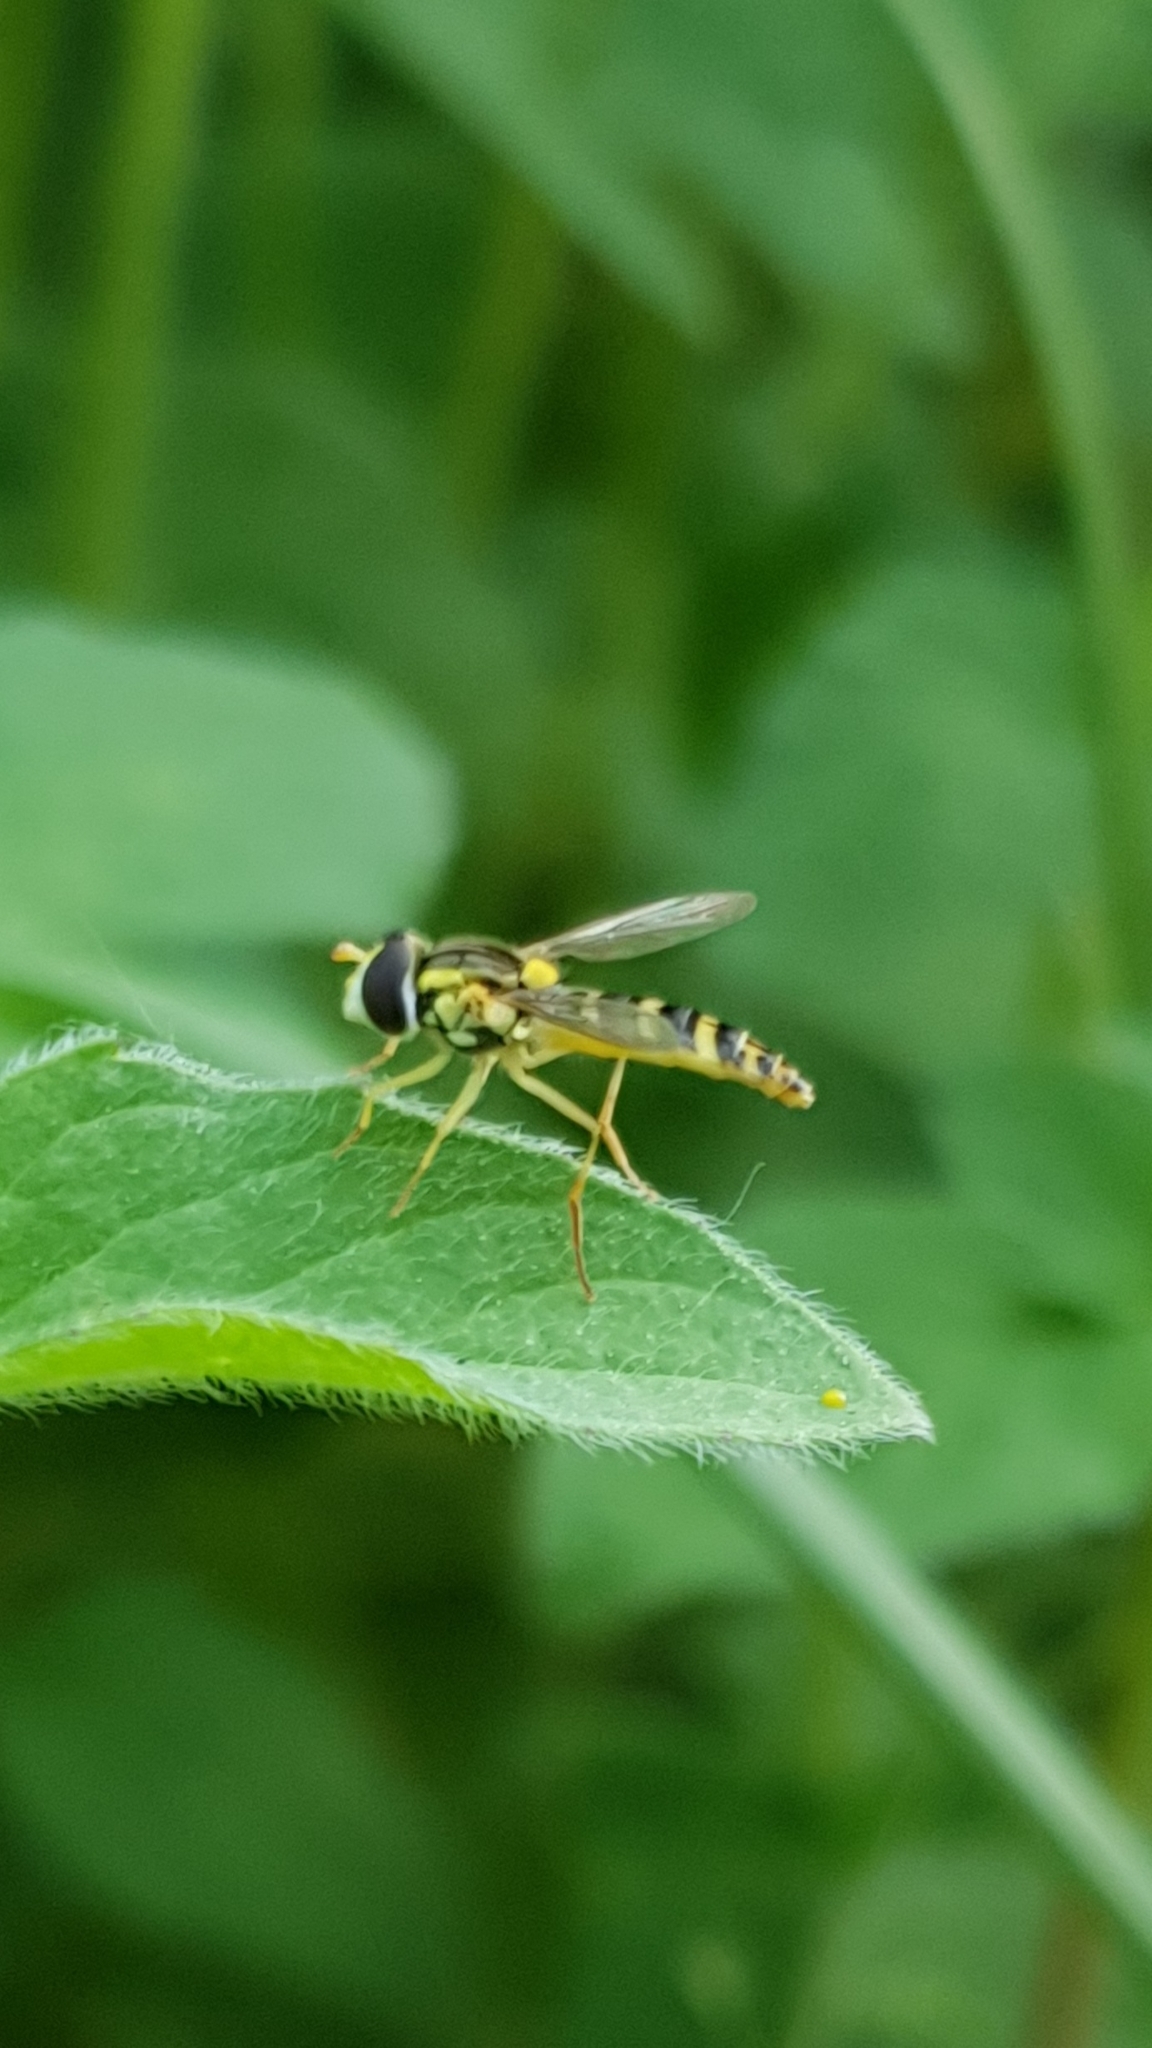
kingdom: Animalia
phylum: Arthropoda
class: Insecta
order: Diptera
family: Syrphidae
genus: Sphaerophoria
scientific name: Sphaerophoria
